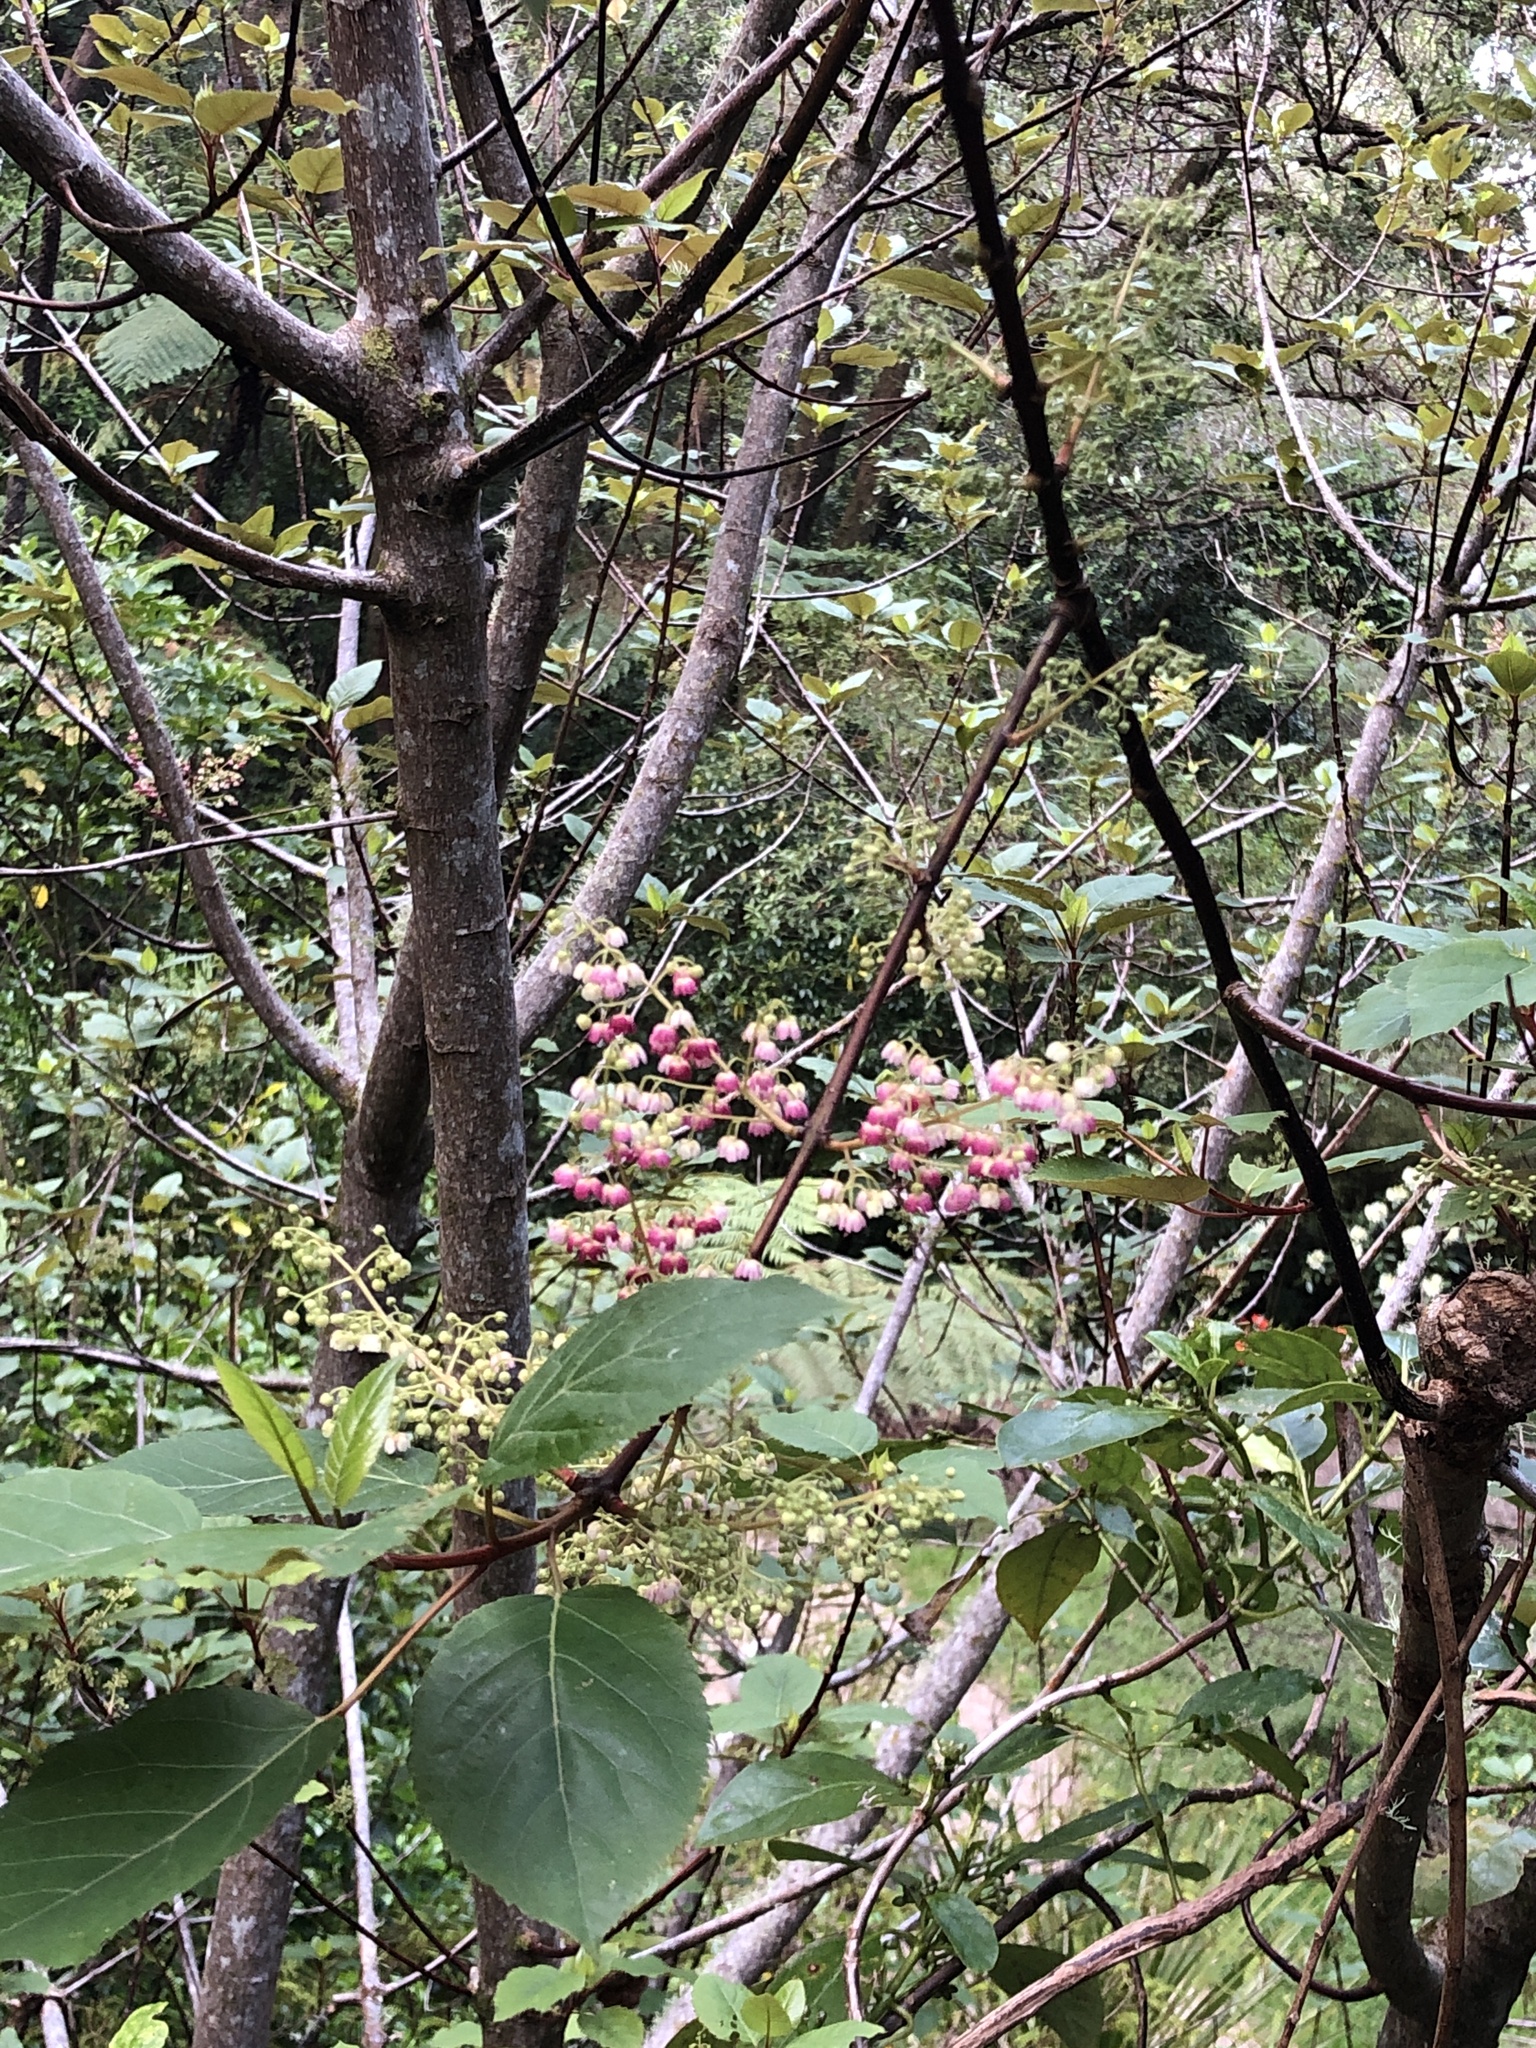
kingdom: Plantae
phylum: Tracheophyta
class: Magnoliopsida
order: Oxalidales
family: Elaeocarpaceae
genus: Aristotelia
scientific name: Aristotelia serrata
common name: New zealand wineberry
